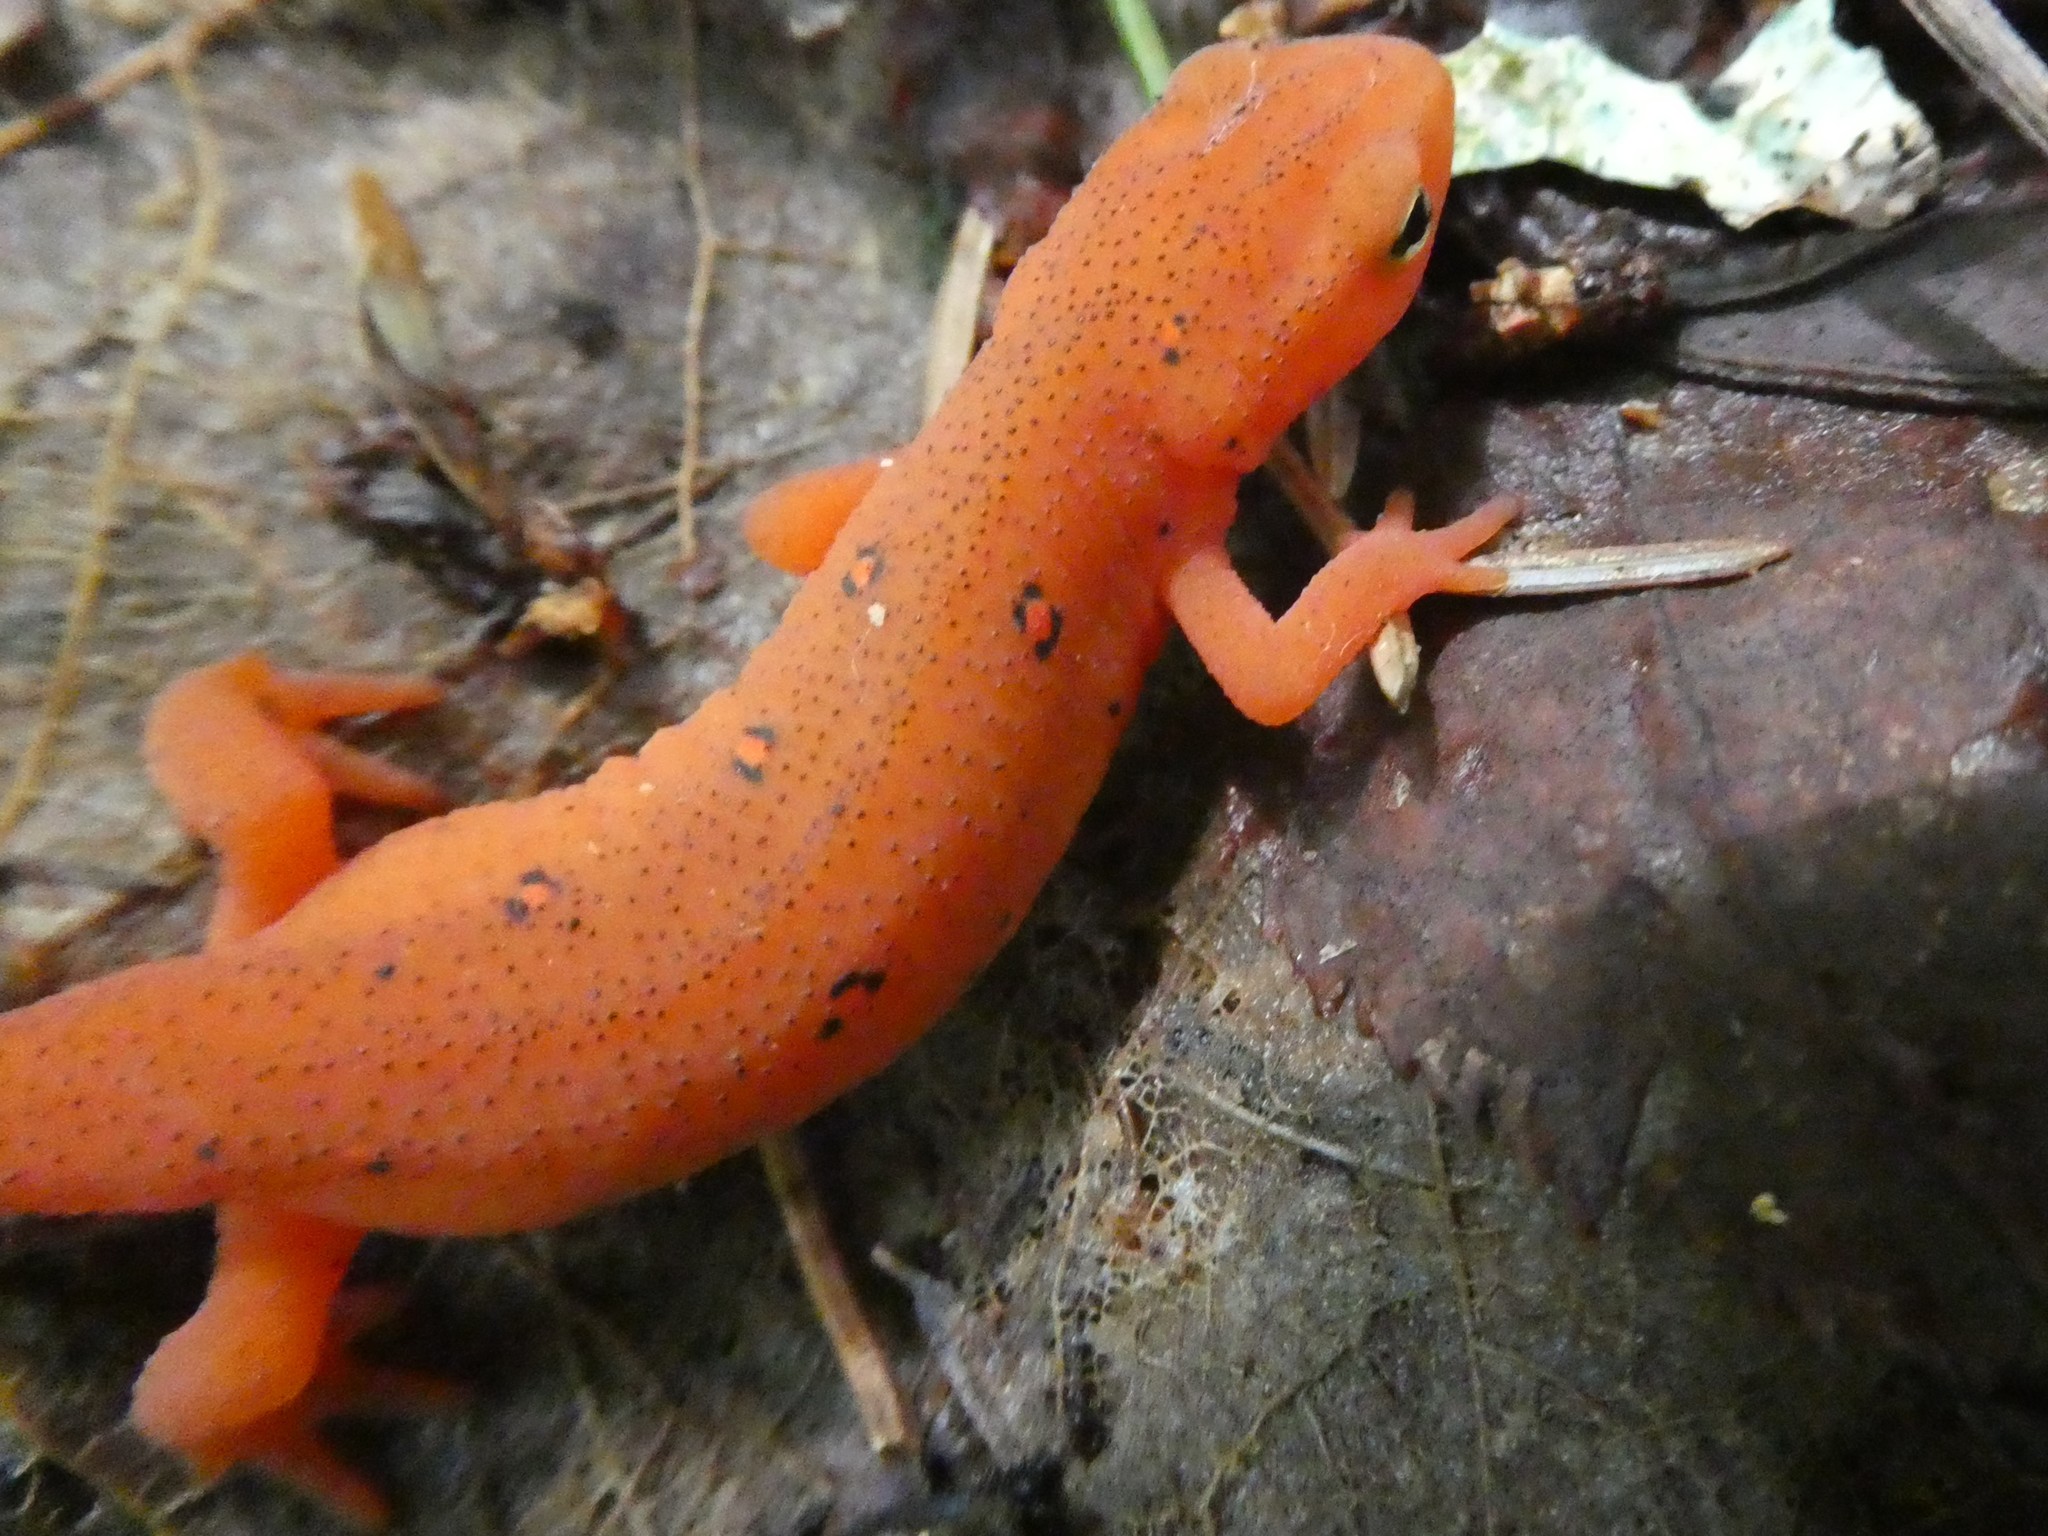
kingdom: Animalia
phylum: Chordata
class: Amphibia
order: Caudata
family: Salamandridae
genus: Notophthalmus
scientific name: Notophthalmus viridescens
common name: Eastern newt
